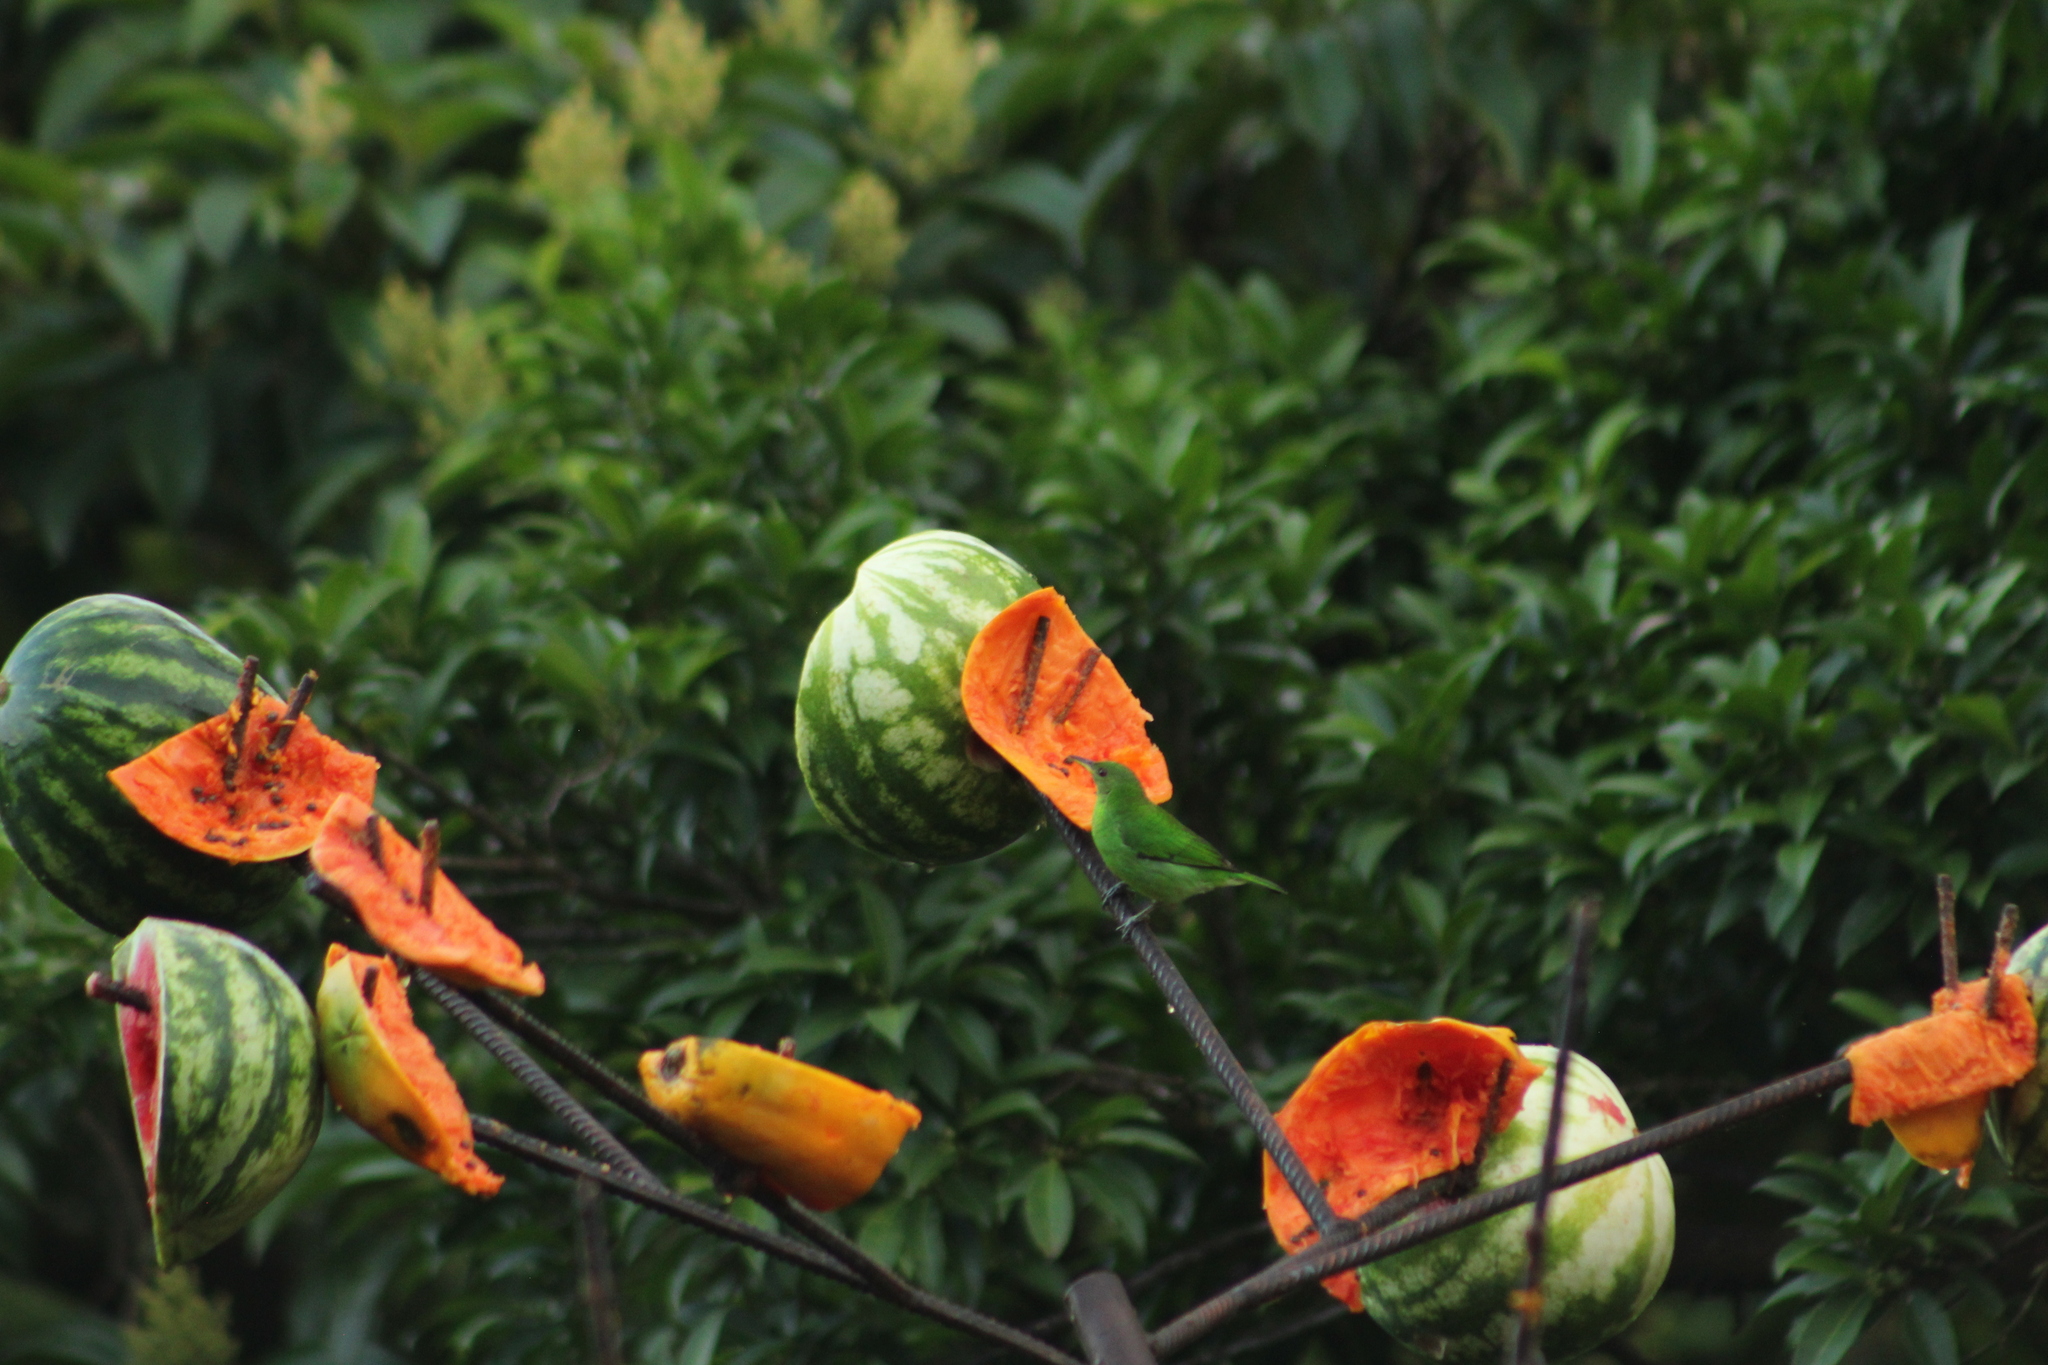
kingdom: Animalia
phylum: Chordata
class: Aves
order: Passeriformes
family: Thraupidae
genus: Chlorophanes
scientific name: Chlorophanes spiza
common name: Green honeycreeper
